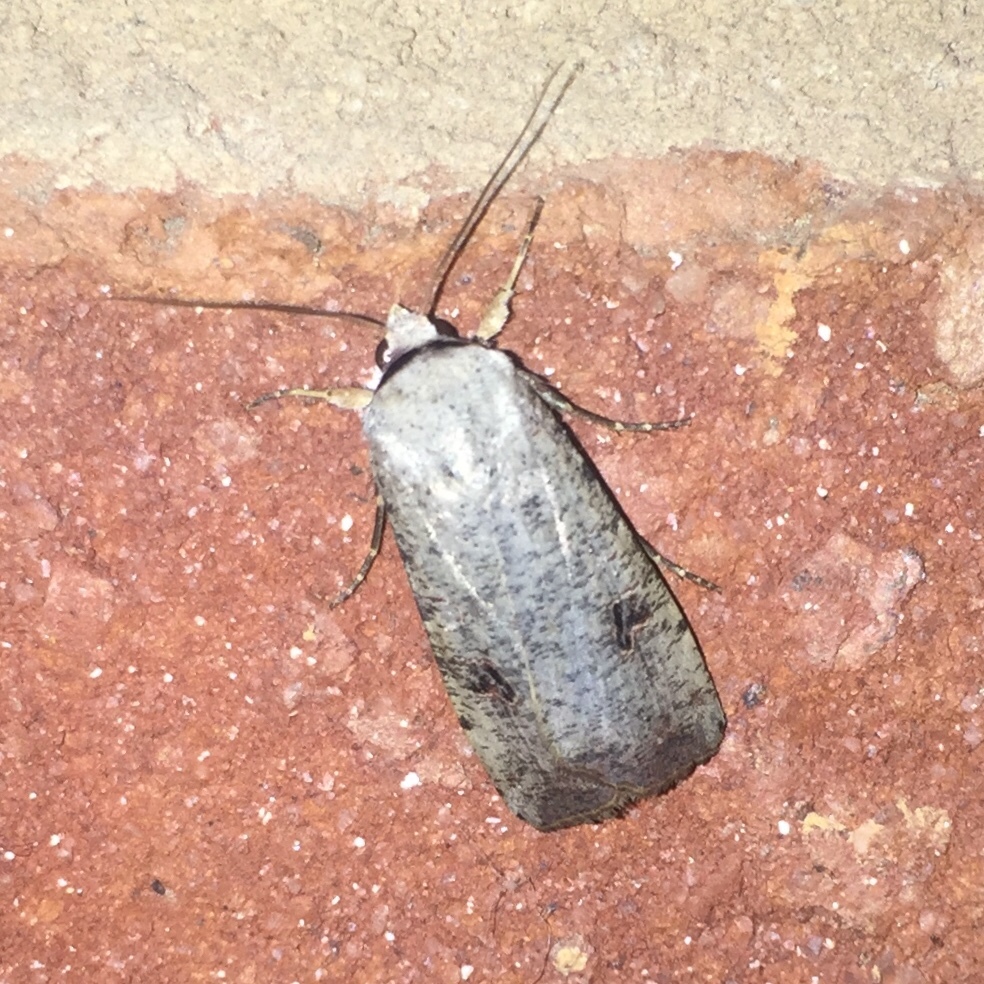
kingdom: Animalia
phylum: Arthropoda
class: Insecta
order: Lepidoptera
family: Noctuidae
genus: Anicla
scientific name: Anicla infecta
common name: Green cutworm
